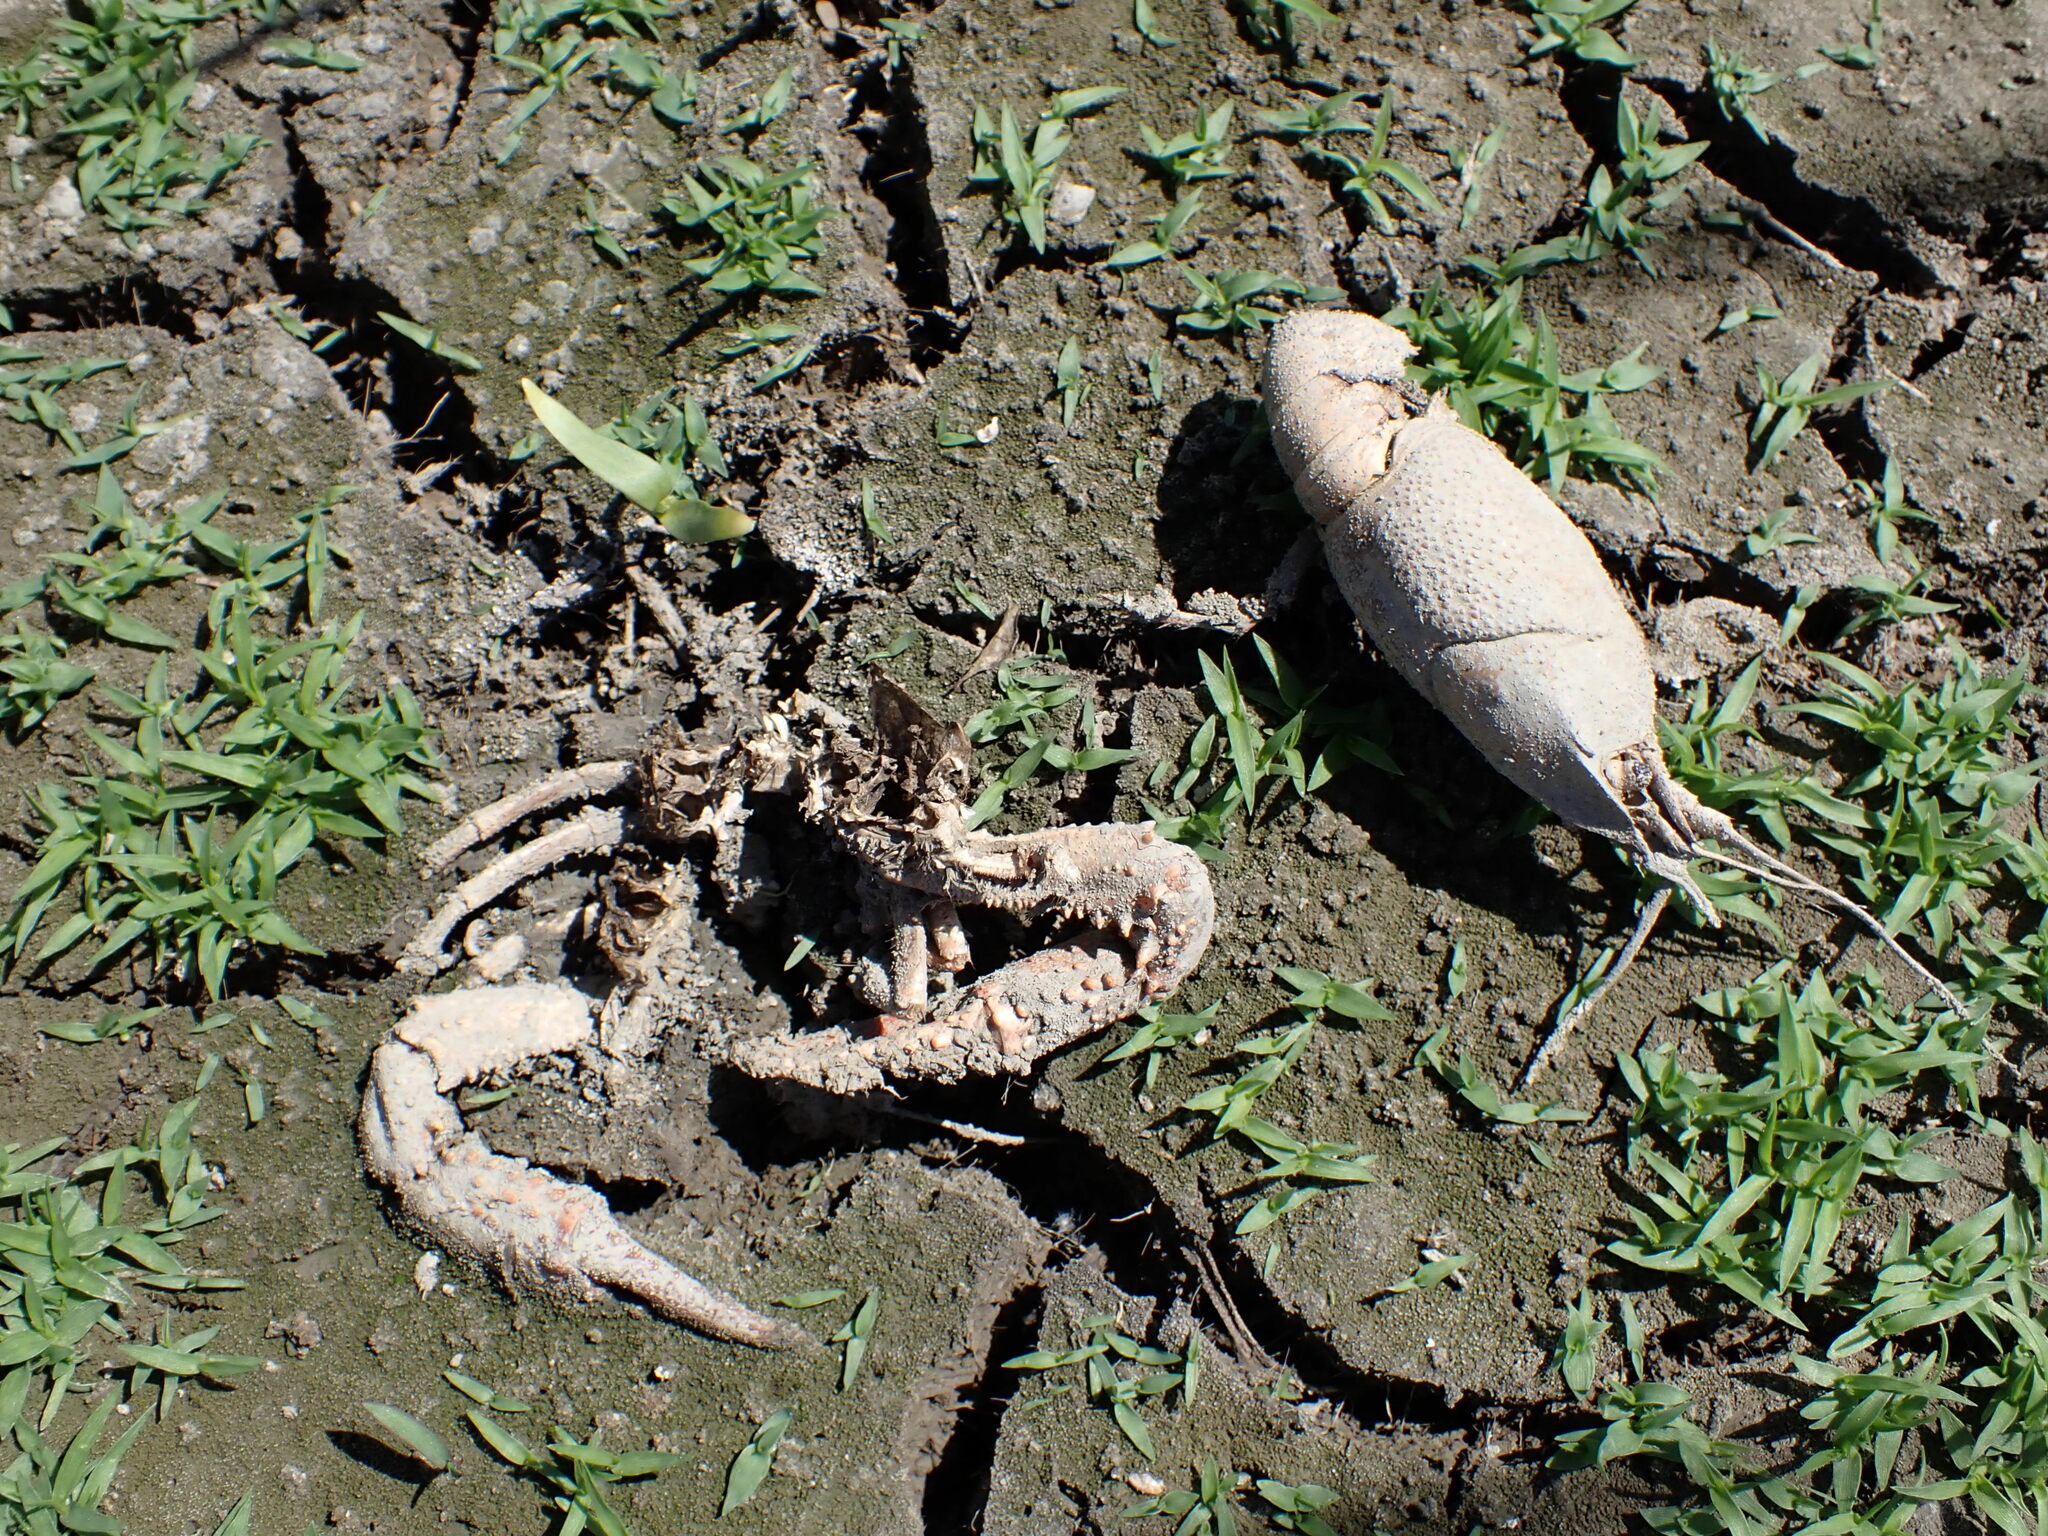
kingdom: Animalia
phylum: Arthropoda
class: Malacostraca
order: Decapoda
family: Cambaridae
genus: Procambarus
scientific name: Procambarus clarkii
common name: Red swamp crayfish
